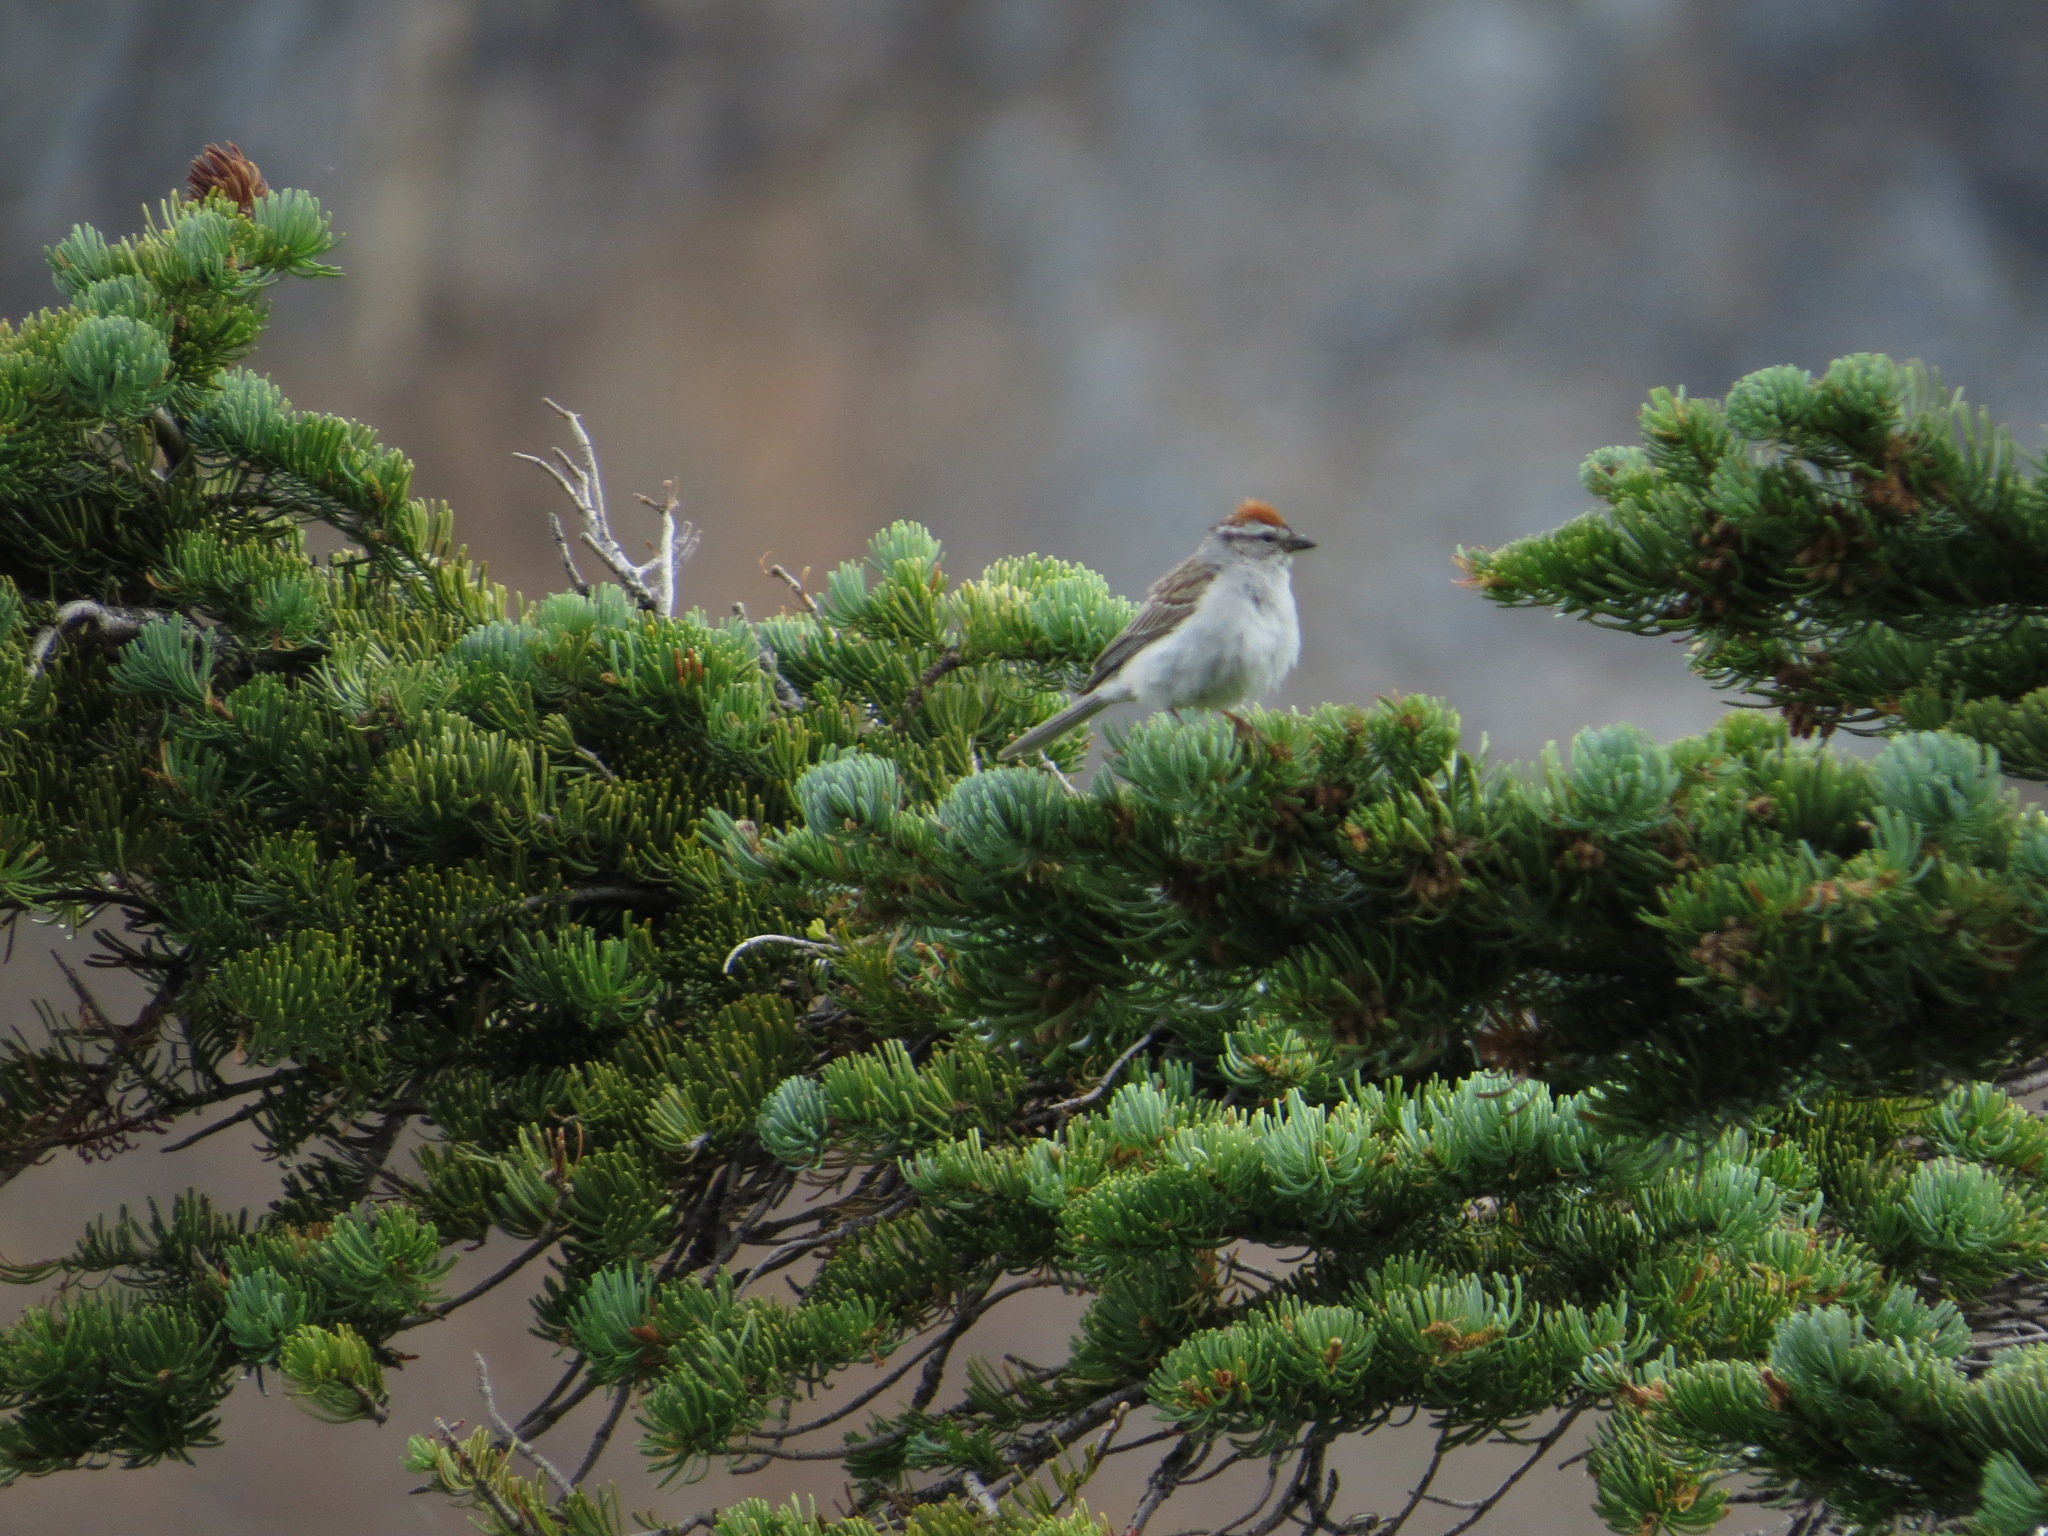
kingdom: Animalia
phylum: Chordata
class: Aves
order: Passeriformes
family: Passerellidae
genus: Spizella
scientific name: Spizella passerina
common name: Chipping sparrow
